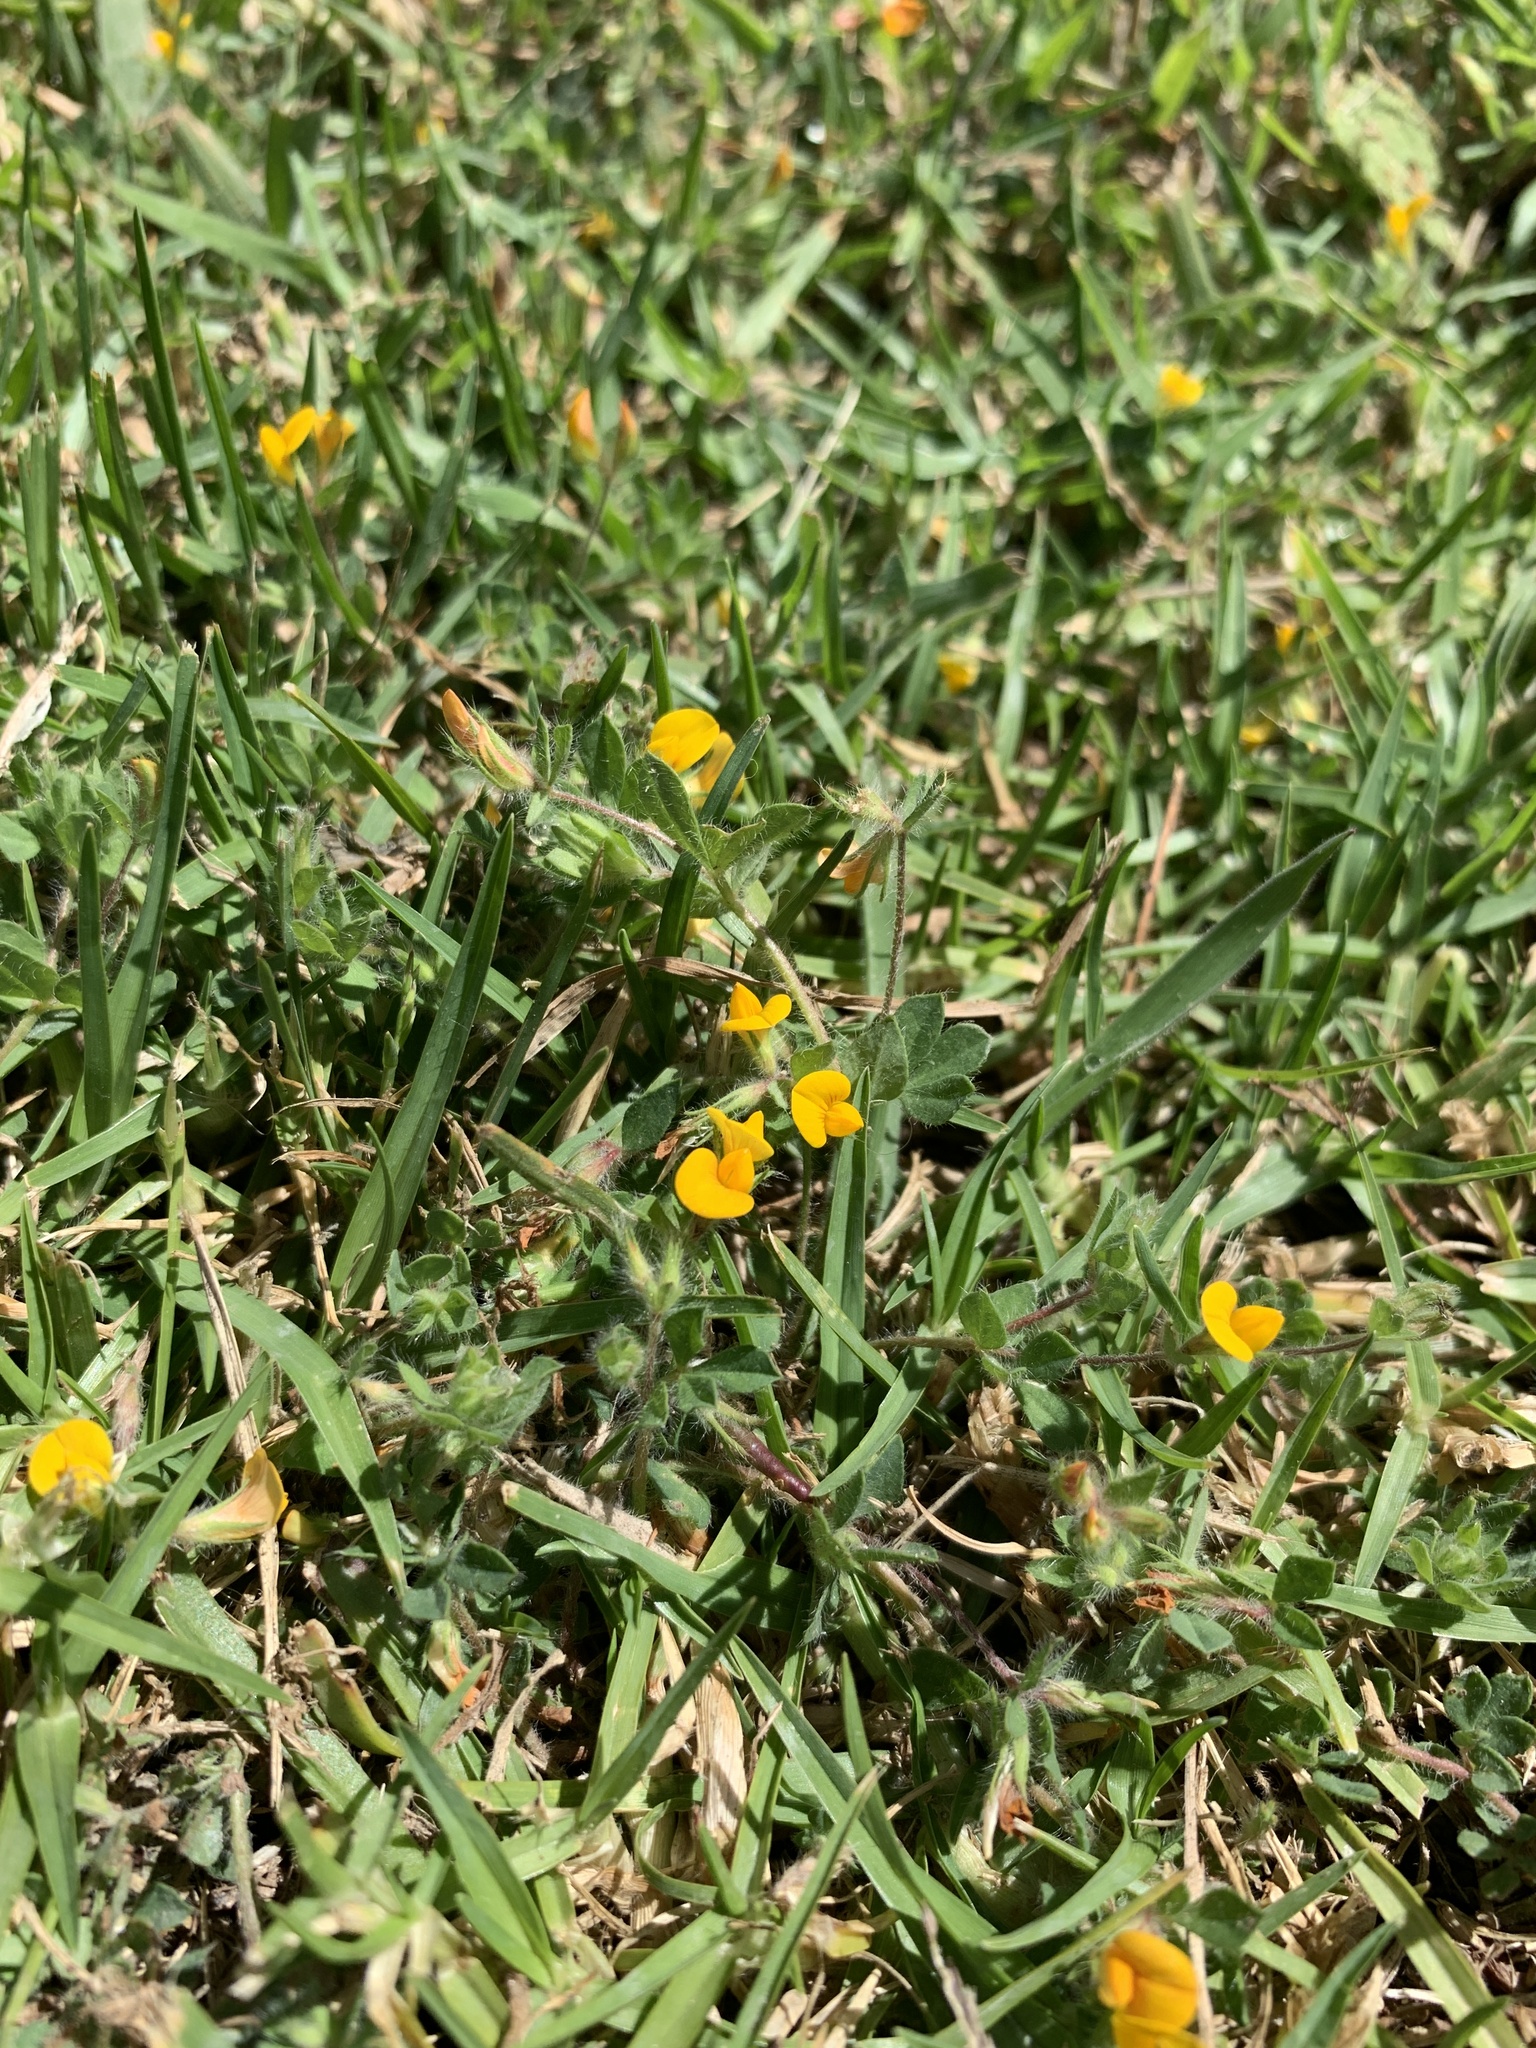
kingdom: Plantae
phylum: Tracheophyta
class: Magnoliopsida
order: Fabales
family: Fabaceae
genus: Lotus
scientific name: Lotus subbiflorus
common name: Hairy bird's-foot trefoil
